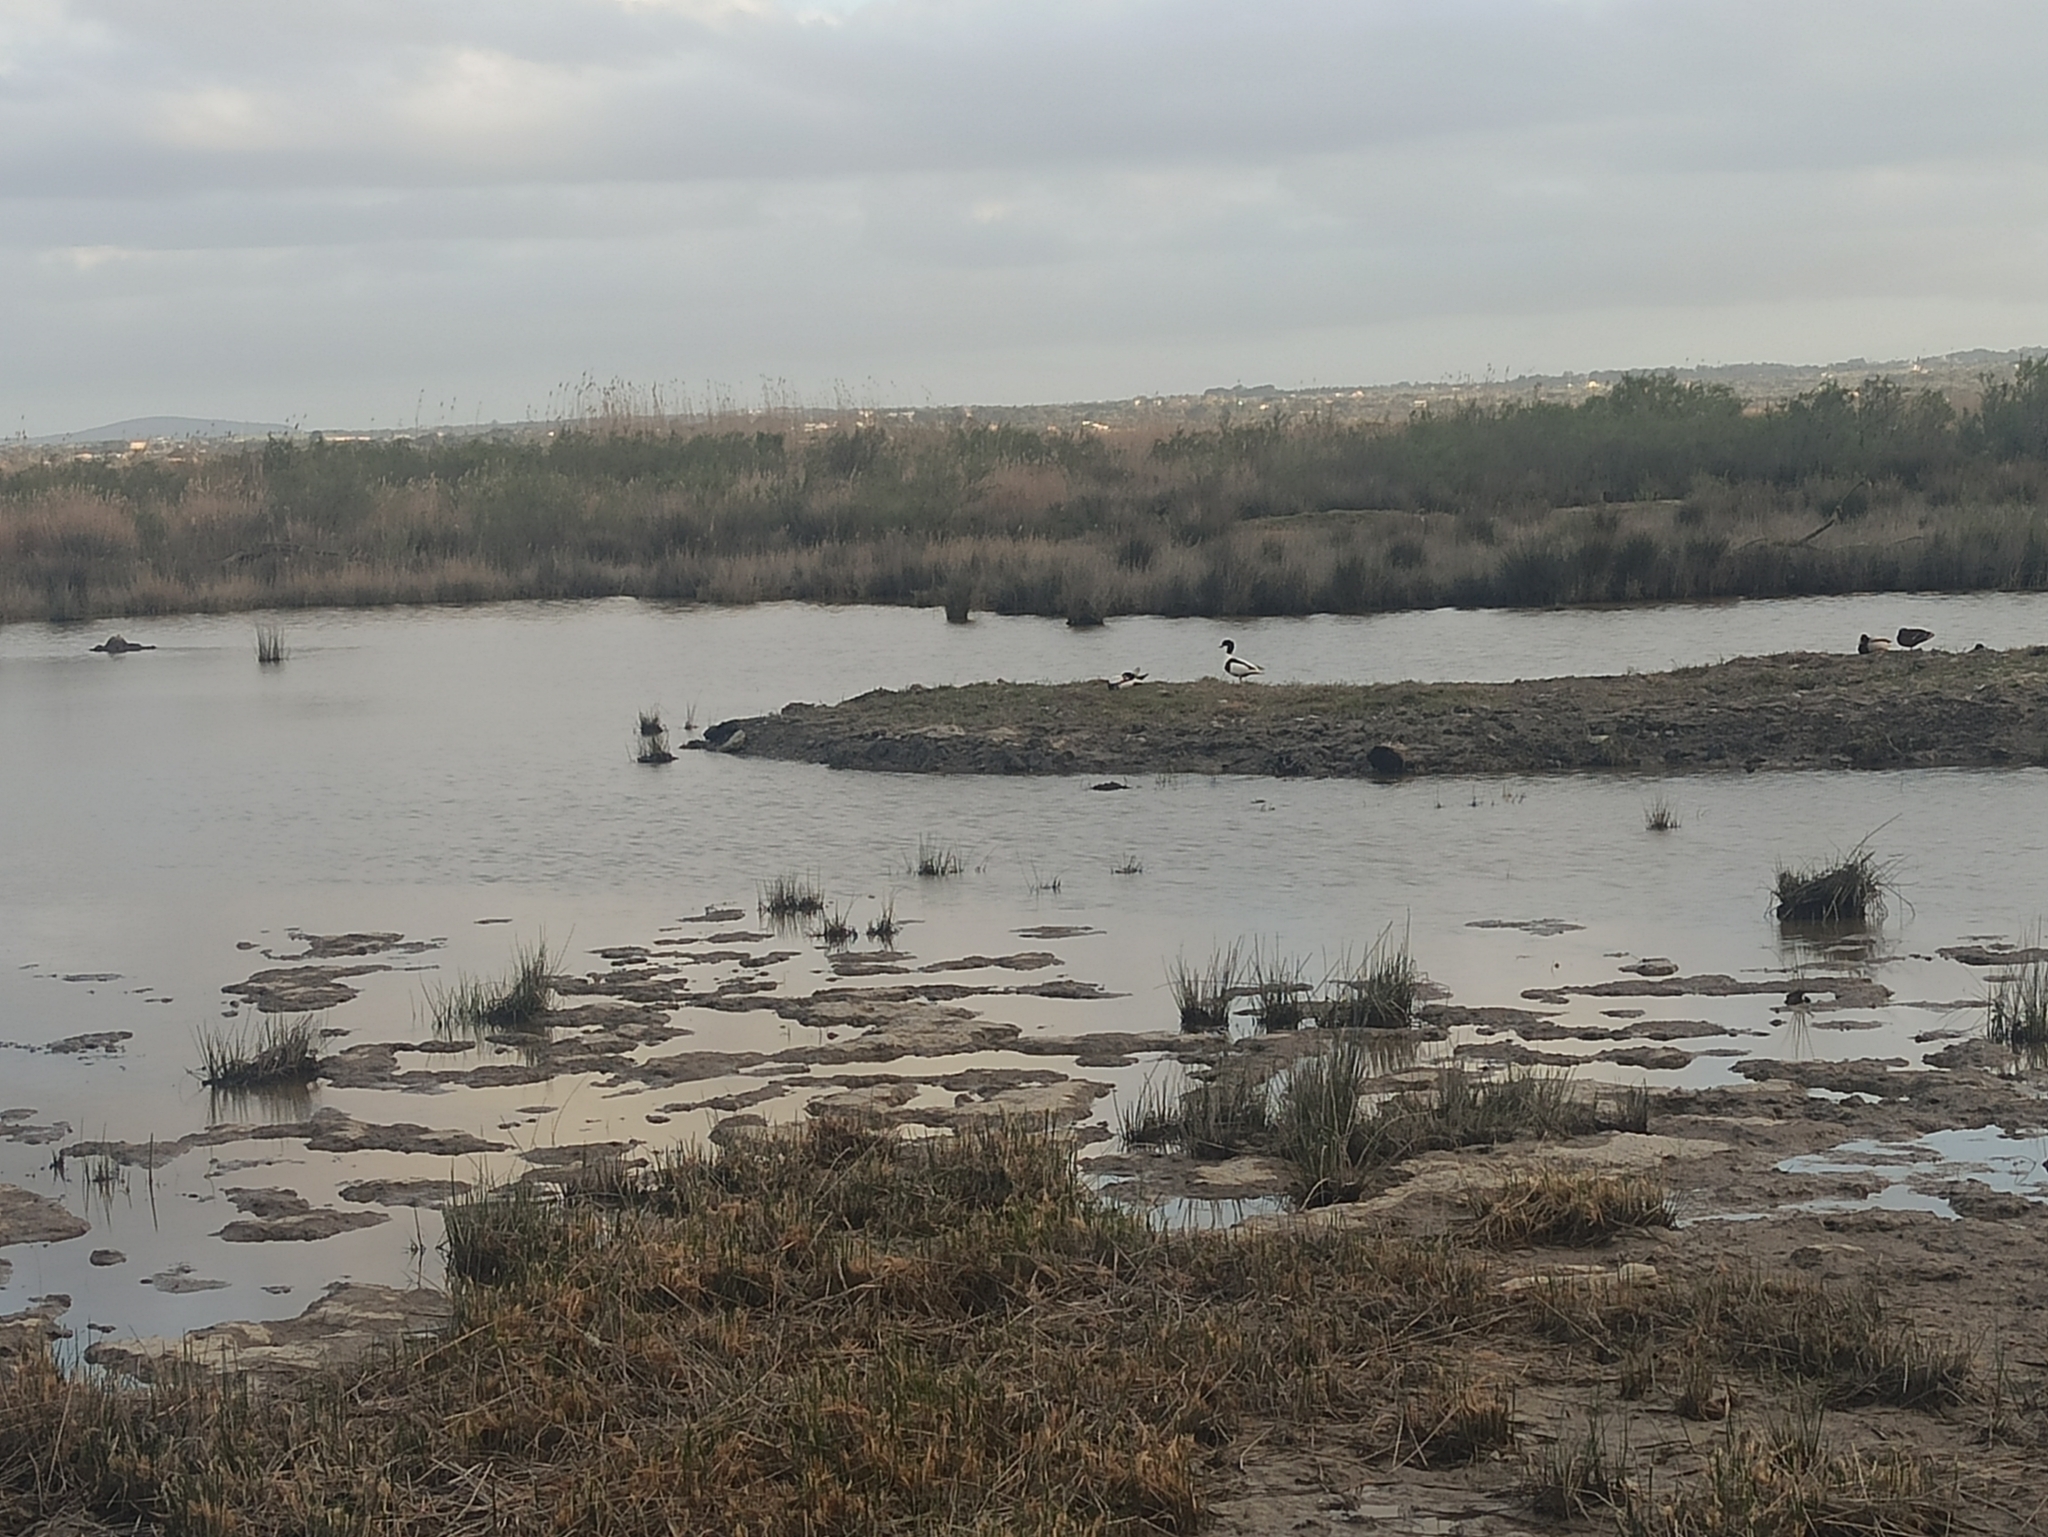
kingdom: Animalia
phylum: Chordata
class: Aves
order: Anseriformes
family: Anatidae
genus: Tadorna
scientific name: Tadorna tadorna
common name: Common shelduck
